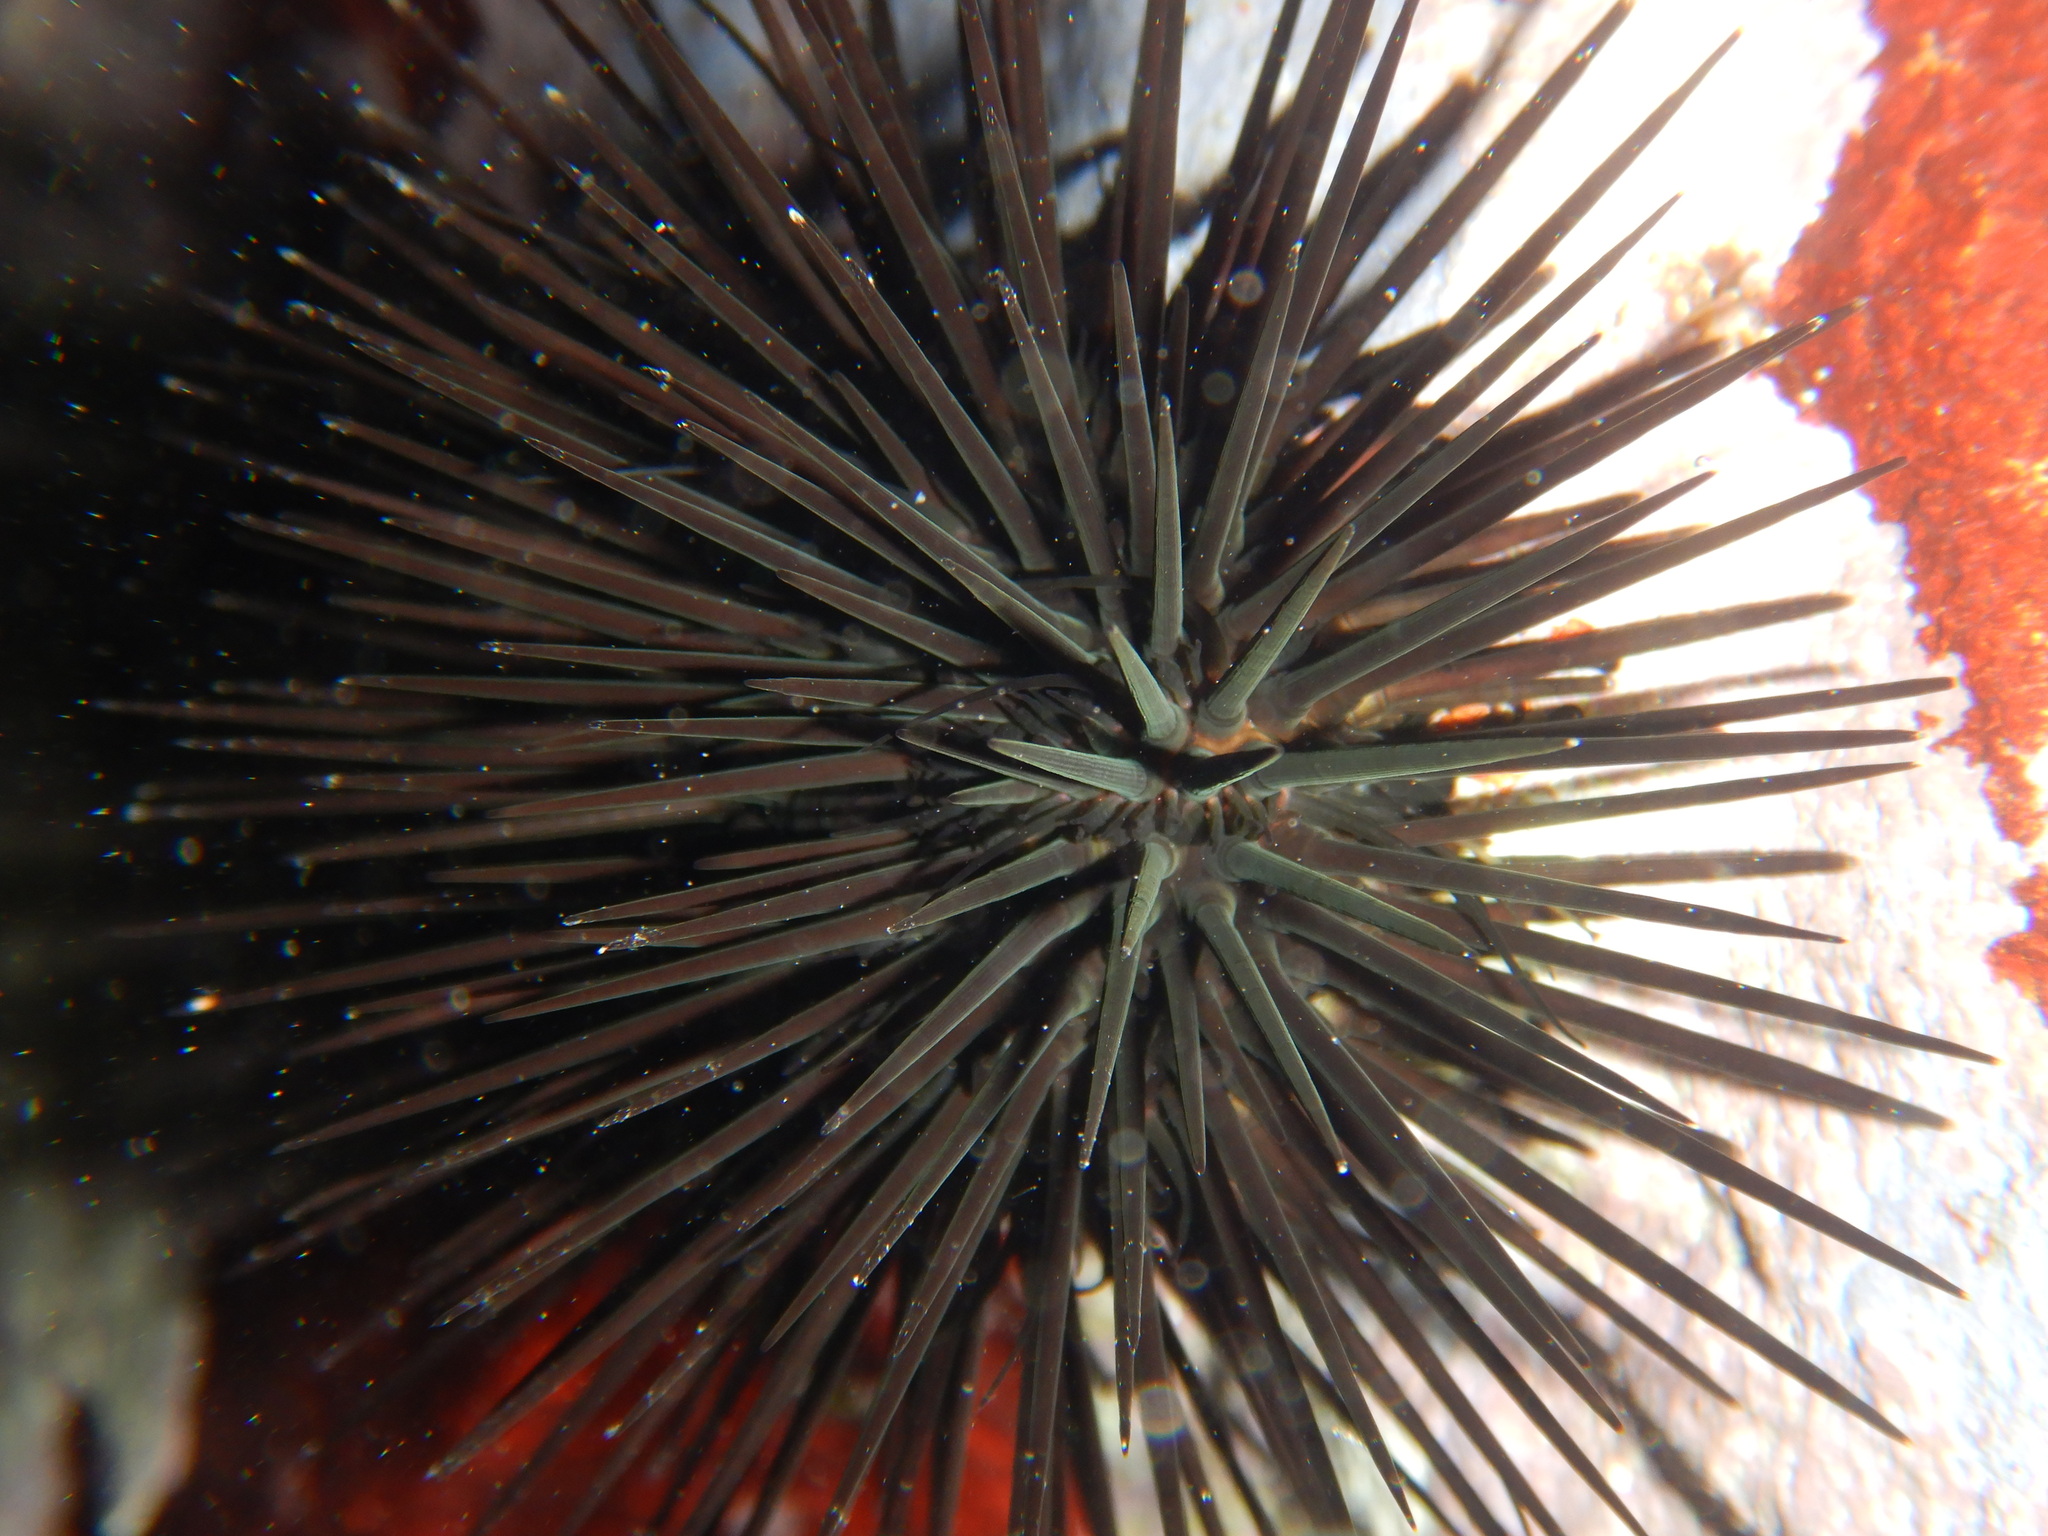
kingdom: Animalia
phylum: Echinodermata
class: Echinoidea
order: Arbacioida
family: Arbaciidae
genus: Arbacia
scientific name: Arbacia lixula
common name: Black sea urchin
